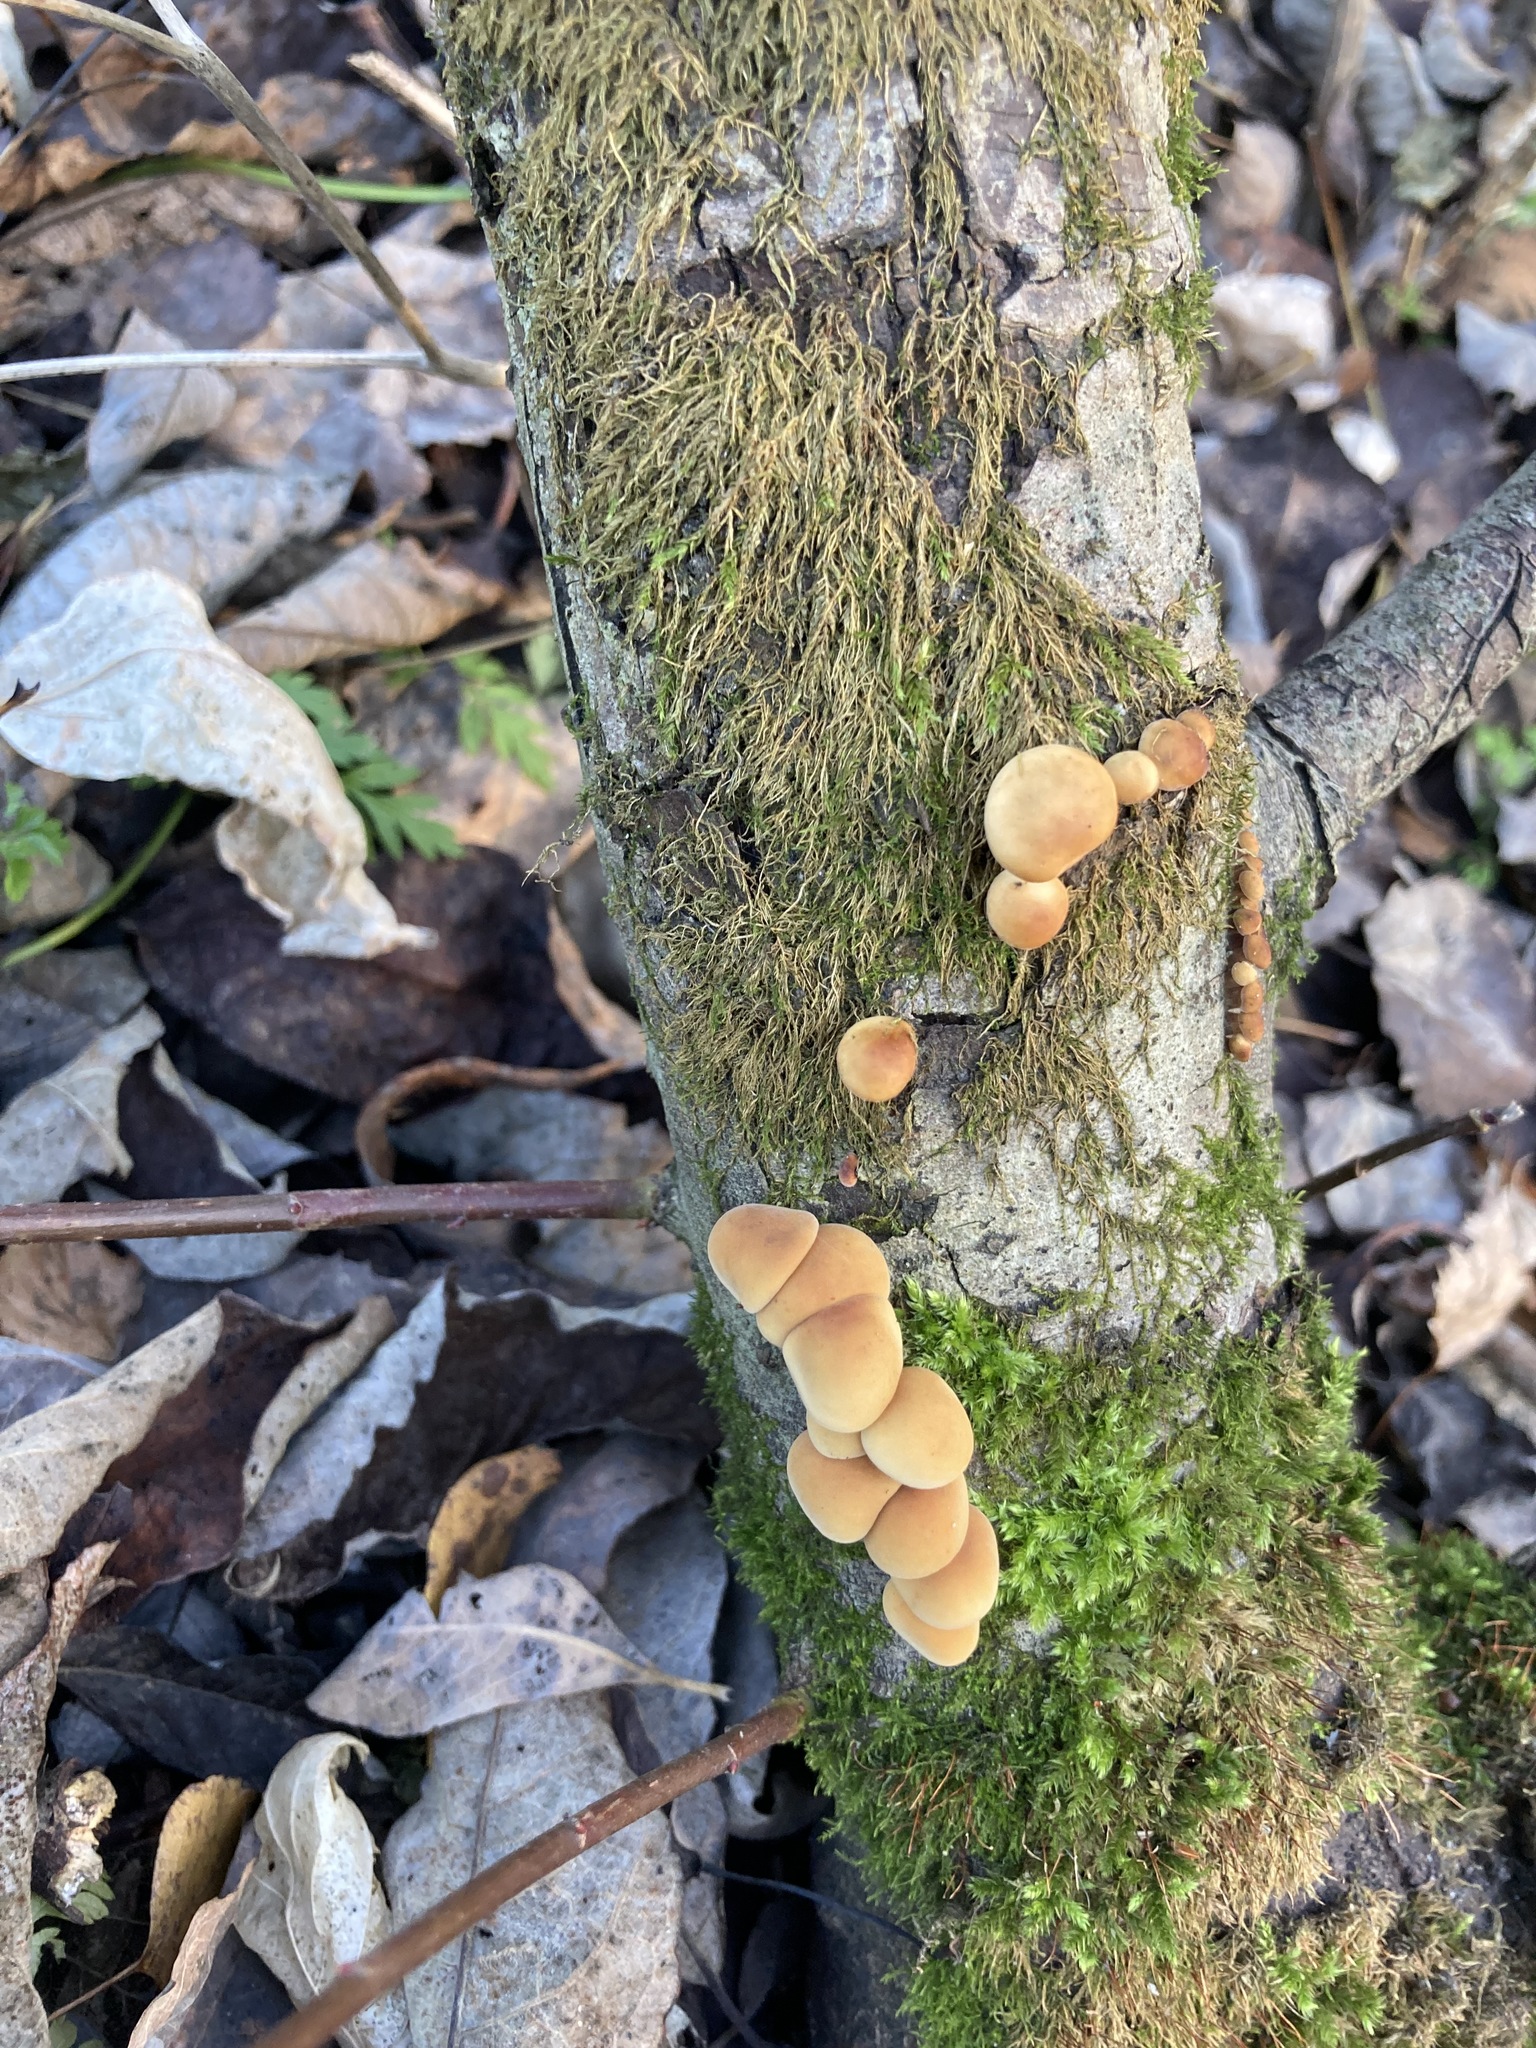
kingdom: Fungi
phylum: Basidiomycota
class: Agaricomycetes
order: Agaricales
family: Physalacriaceae
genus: Flammulina
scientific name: Flammulina
